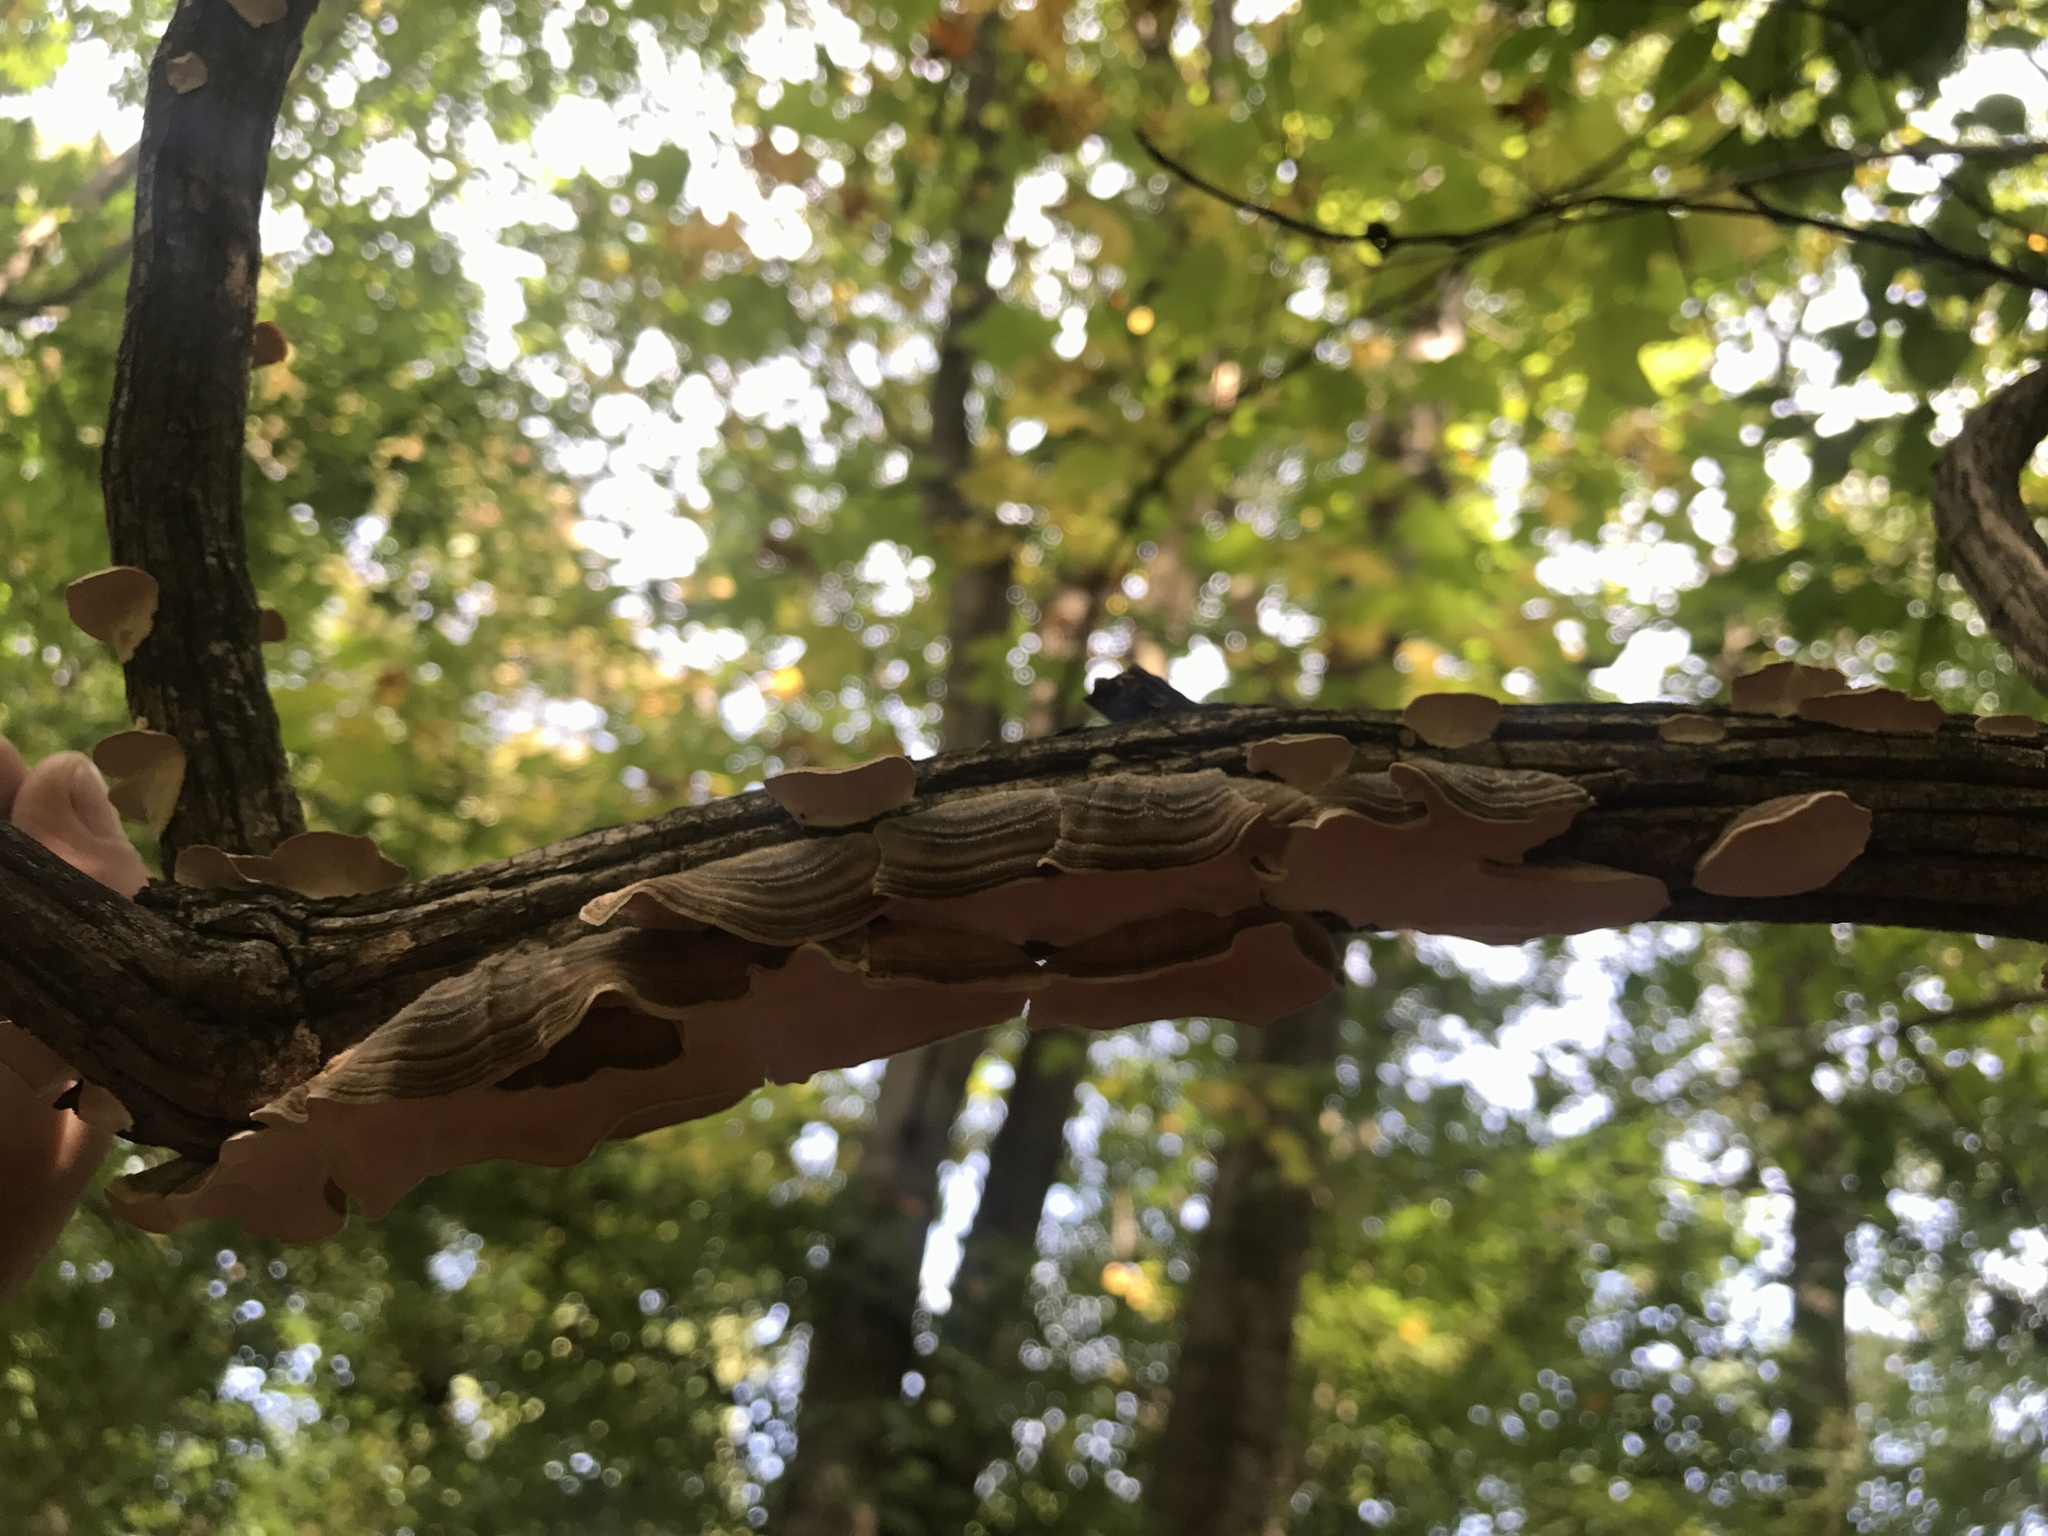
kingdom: Fungi
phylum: Basidiomycota
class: Agaricomycetes
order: Polyporales
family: Polyporaceae
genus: Trametes
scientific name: Trametes versicolor
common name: Turkeytail
